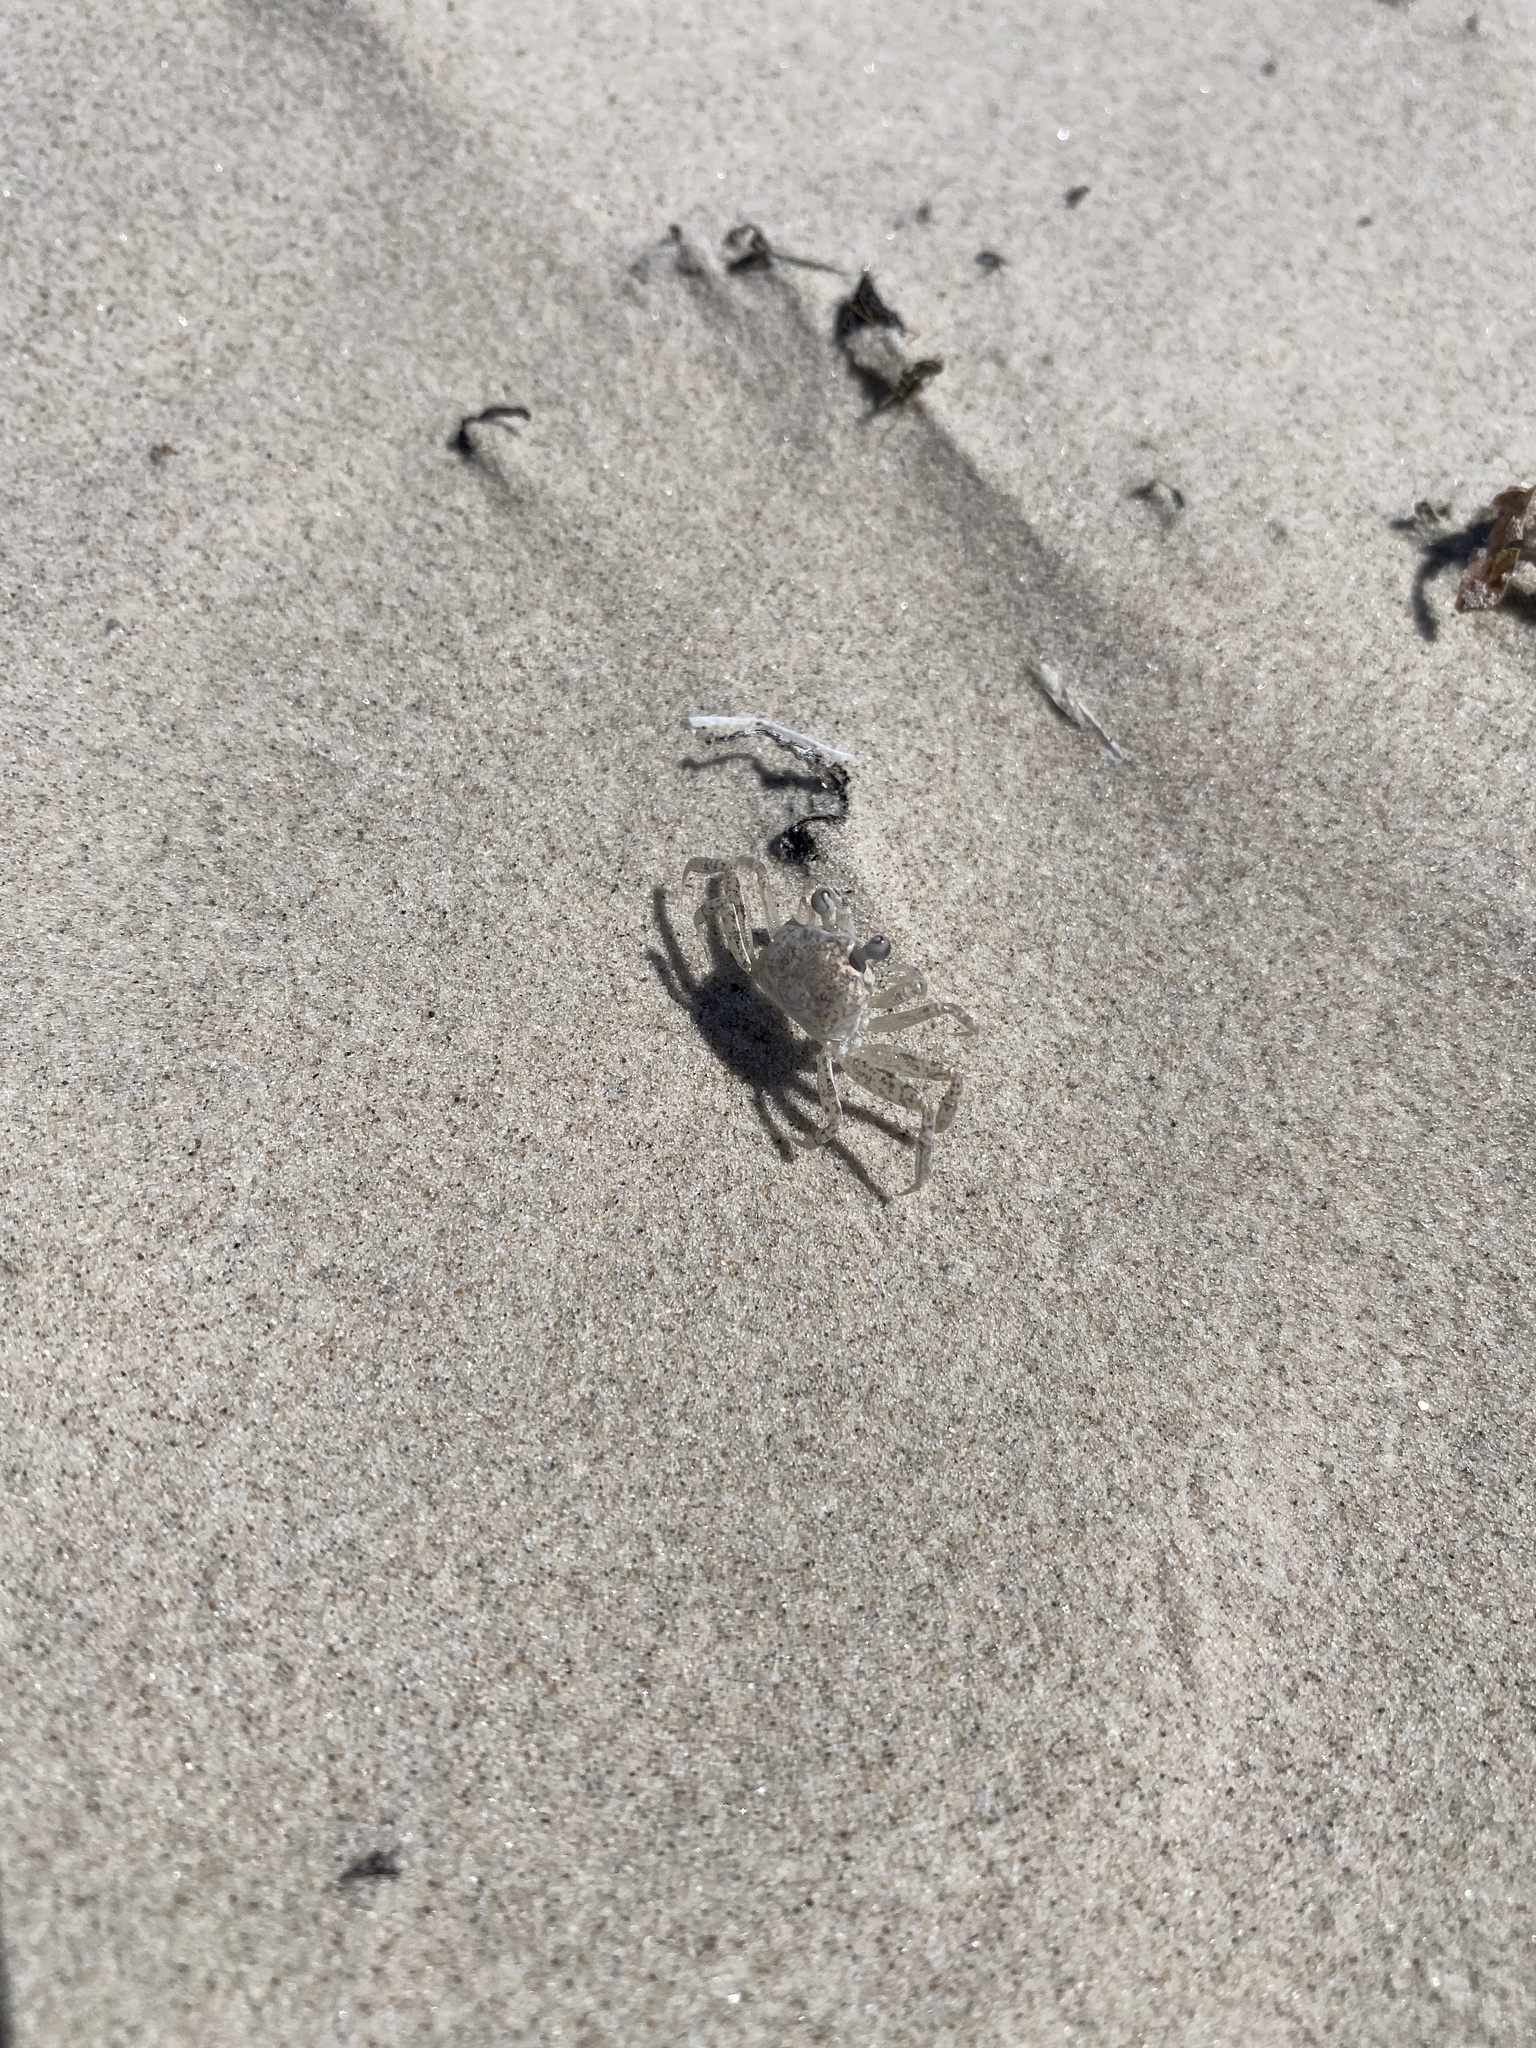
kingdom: Animalia
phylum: Arthropoda
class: Malacostraca
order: Decapoda
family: Ocypodidae
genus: Ocypode
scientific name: Ocypode quadrata
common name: Ghost crab
